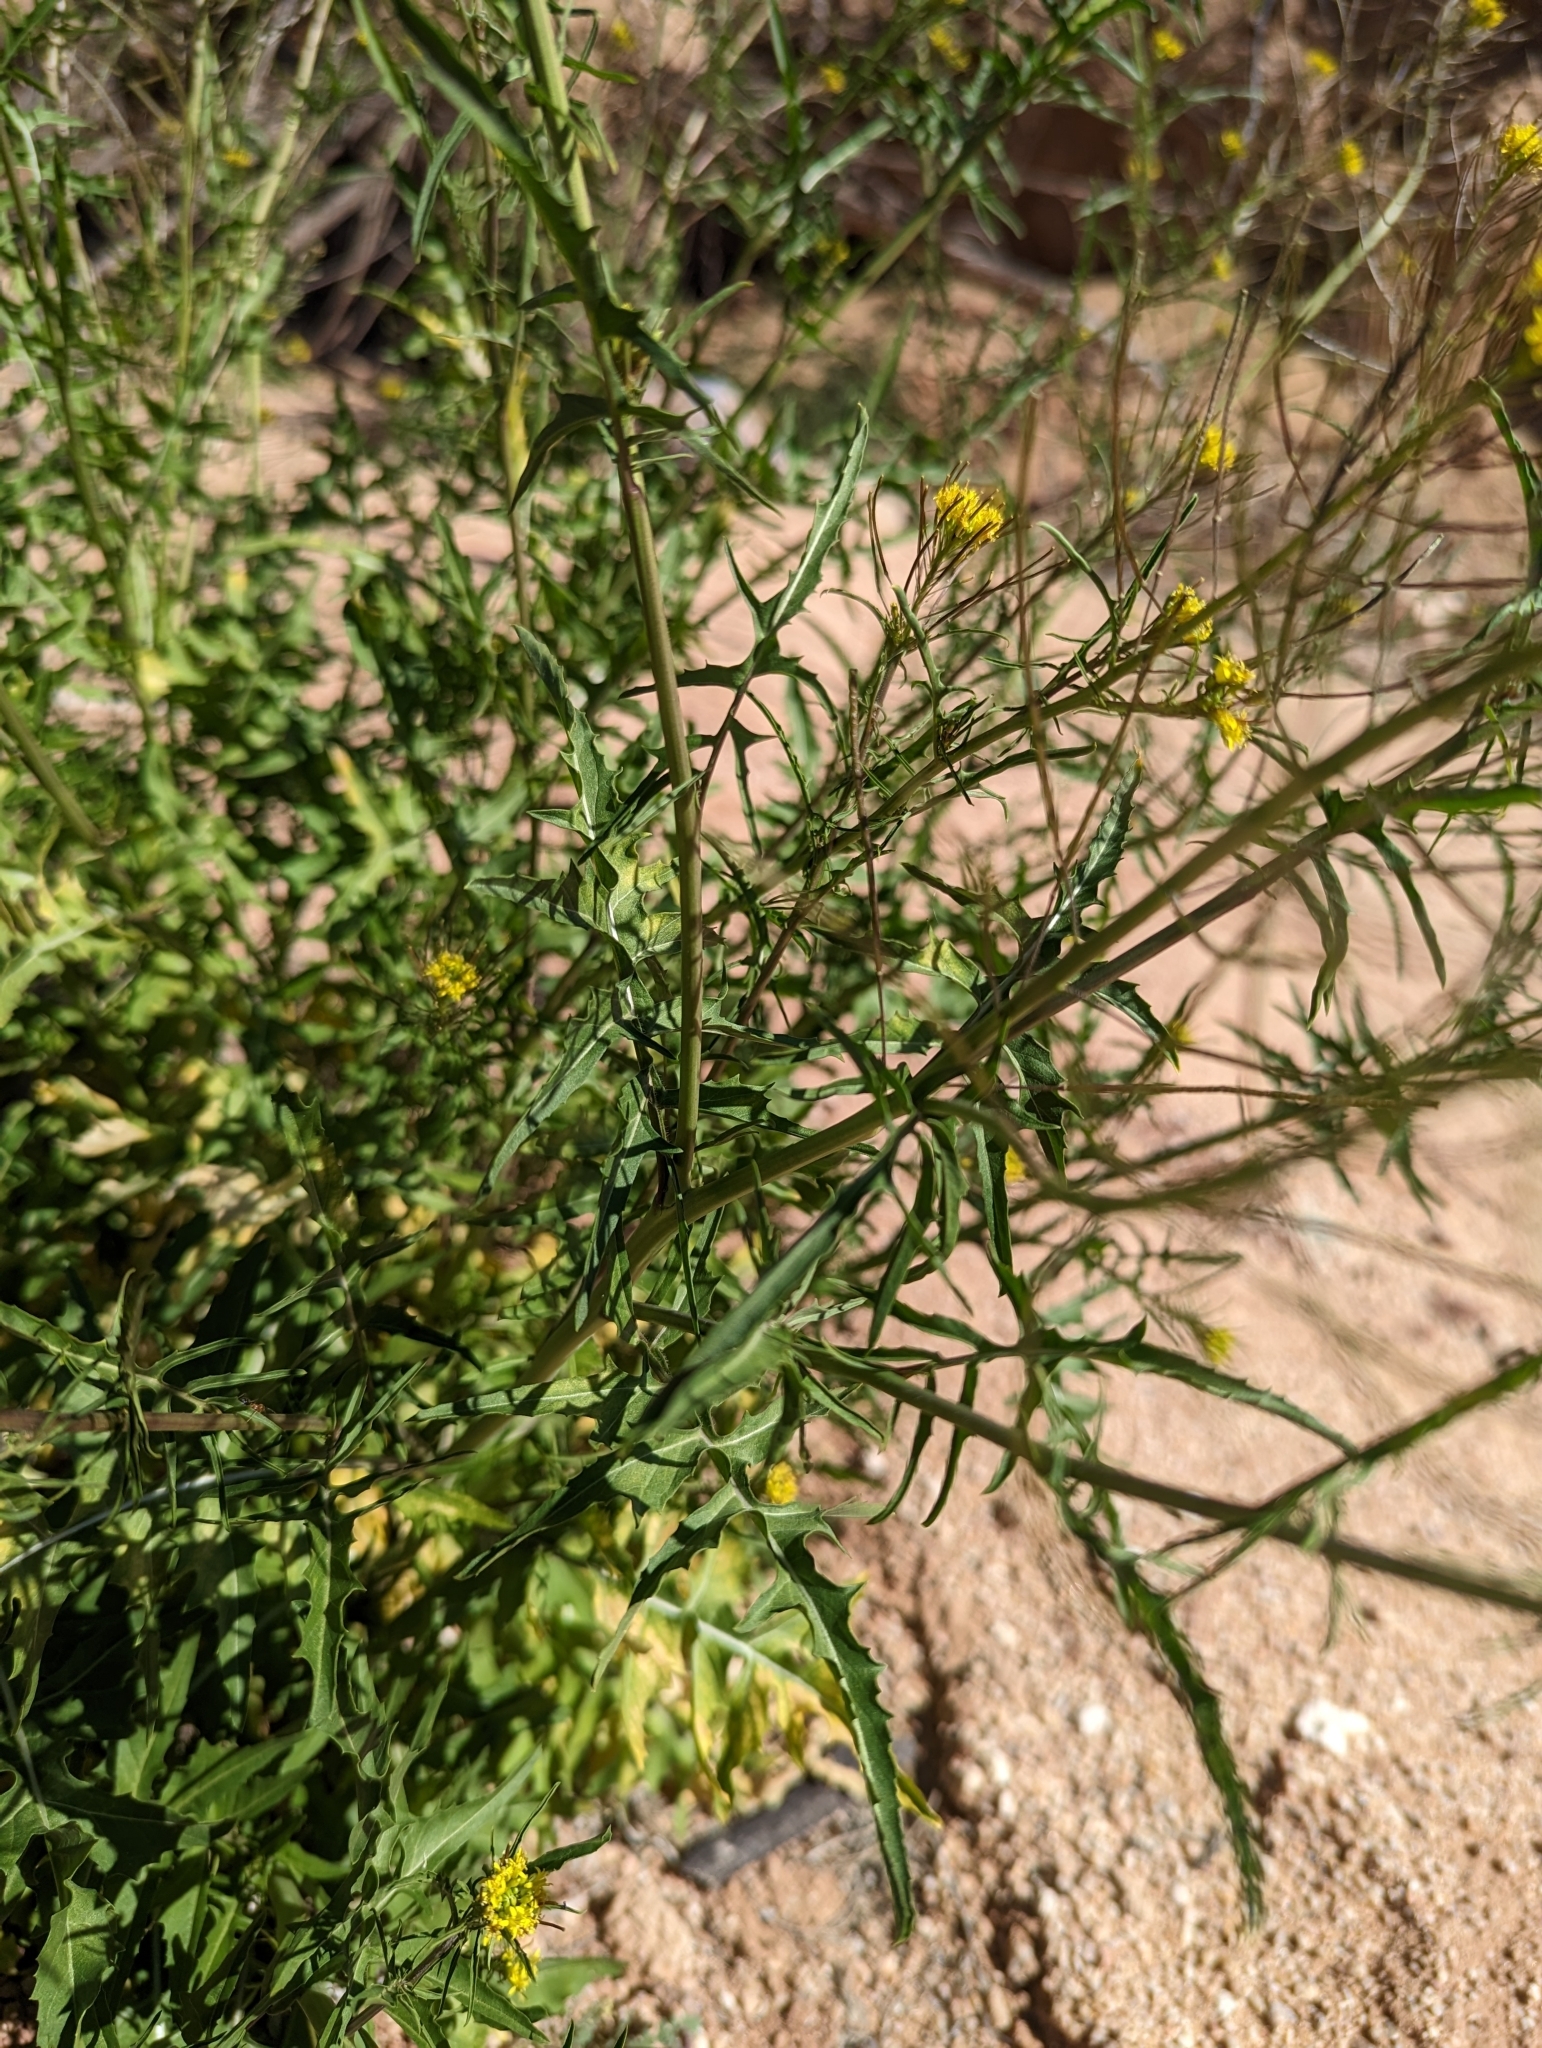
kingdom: Plantae
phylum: Tracheophyta
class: Magnoliopsida
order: Brassicales
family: Brassicaceae
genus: Sisymbrium
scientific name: Sisymbrium irio
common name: London rocket
